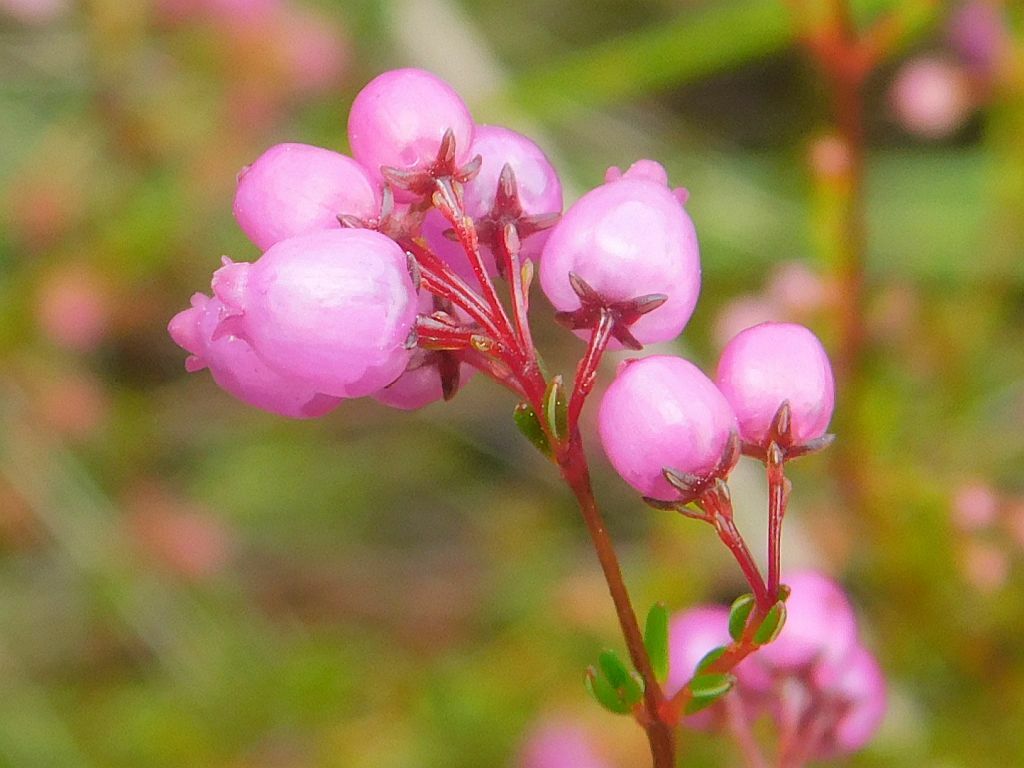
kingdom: Plantae
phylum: Tracheophyta
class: Magnoliopsida
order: Ericales
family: Ericaceae
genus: Erica
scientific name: Erica multumbellifera
